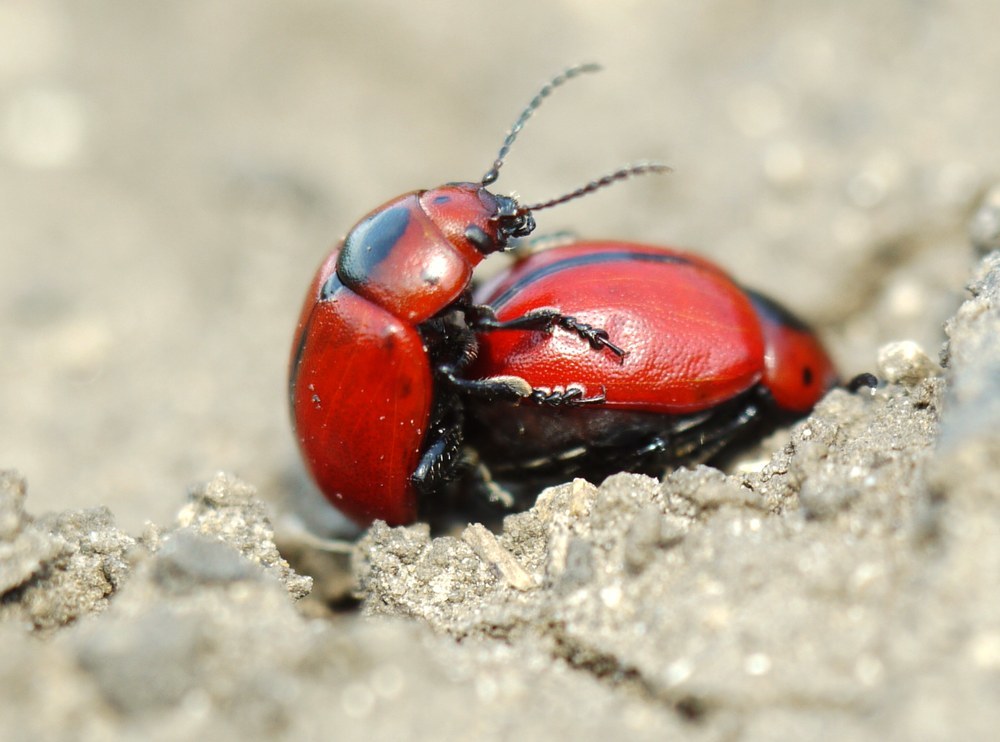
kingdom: Animalia
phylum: Arthropoda
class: Insecta
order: Coleoptera
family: Chrysomelidae
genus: Entomoscelis
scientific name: Entomoscelis suturalis
